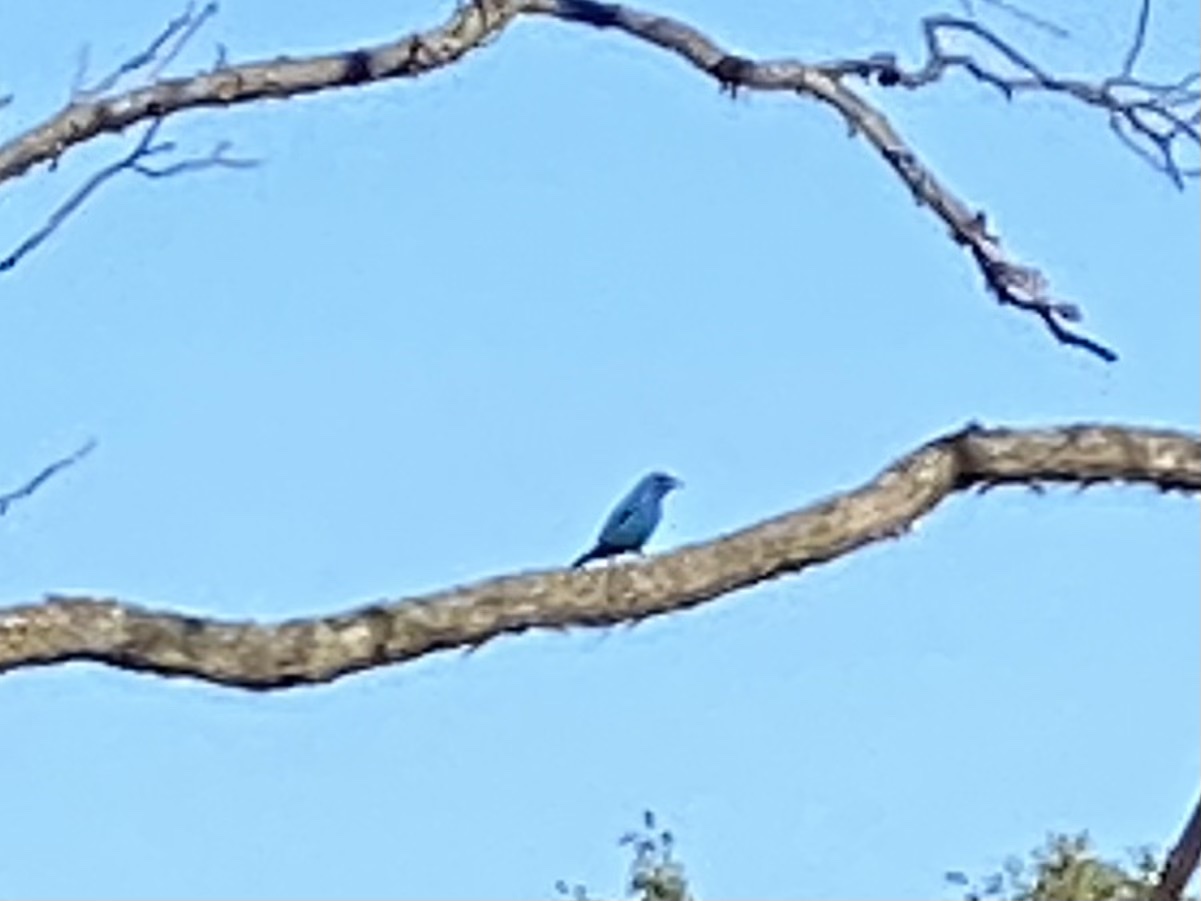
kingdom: Animalia
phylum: Chordata
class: Aves
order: Passeriformes
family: Cardinalidae
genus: Passerina
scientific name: Passerina cyanea
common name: Indigo bunting
